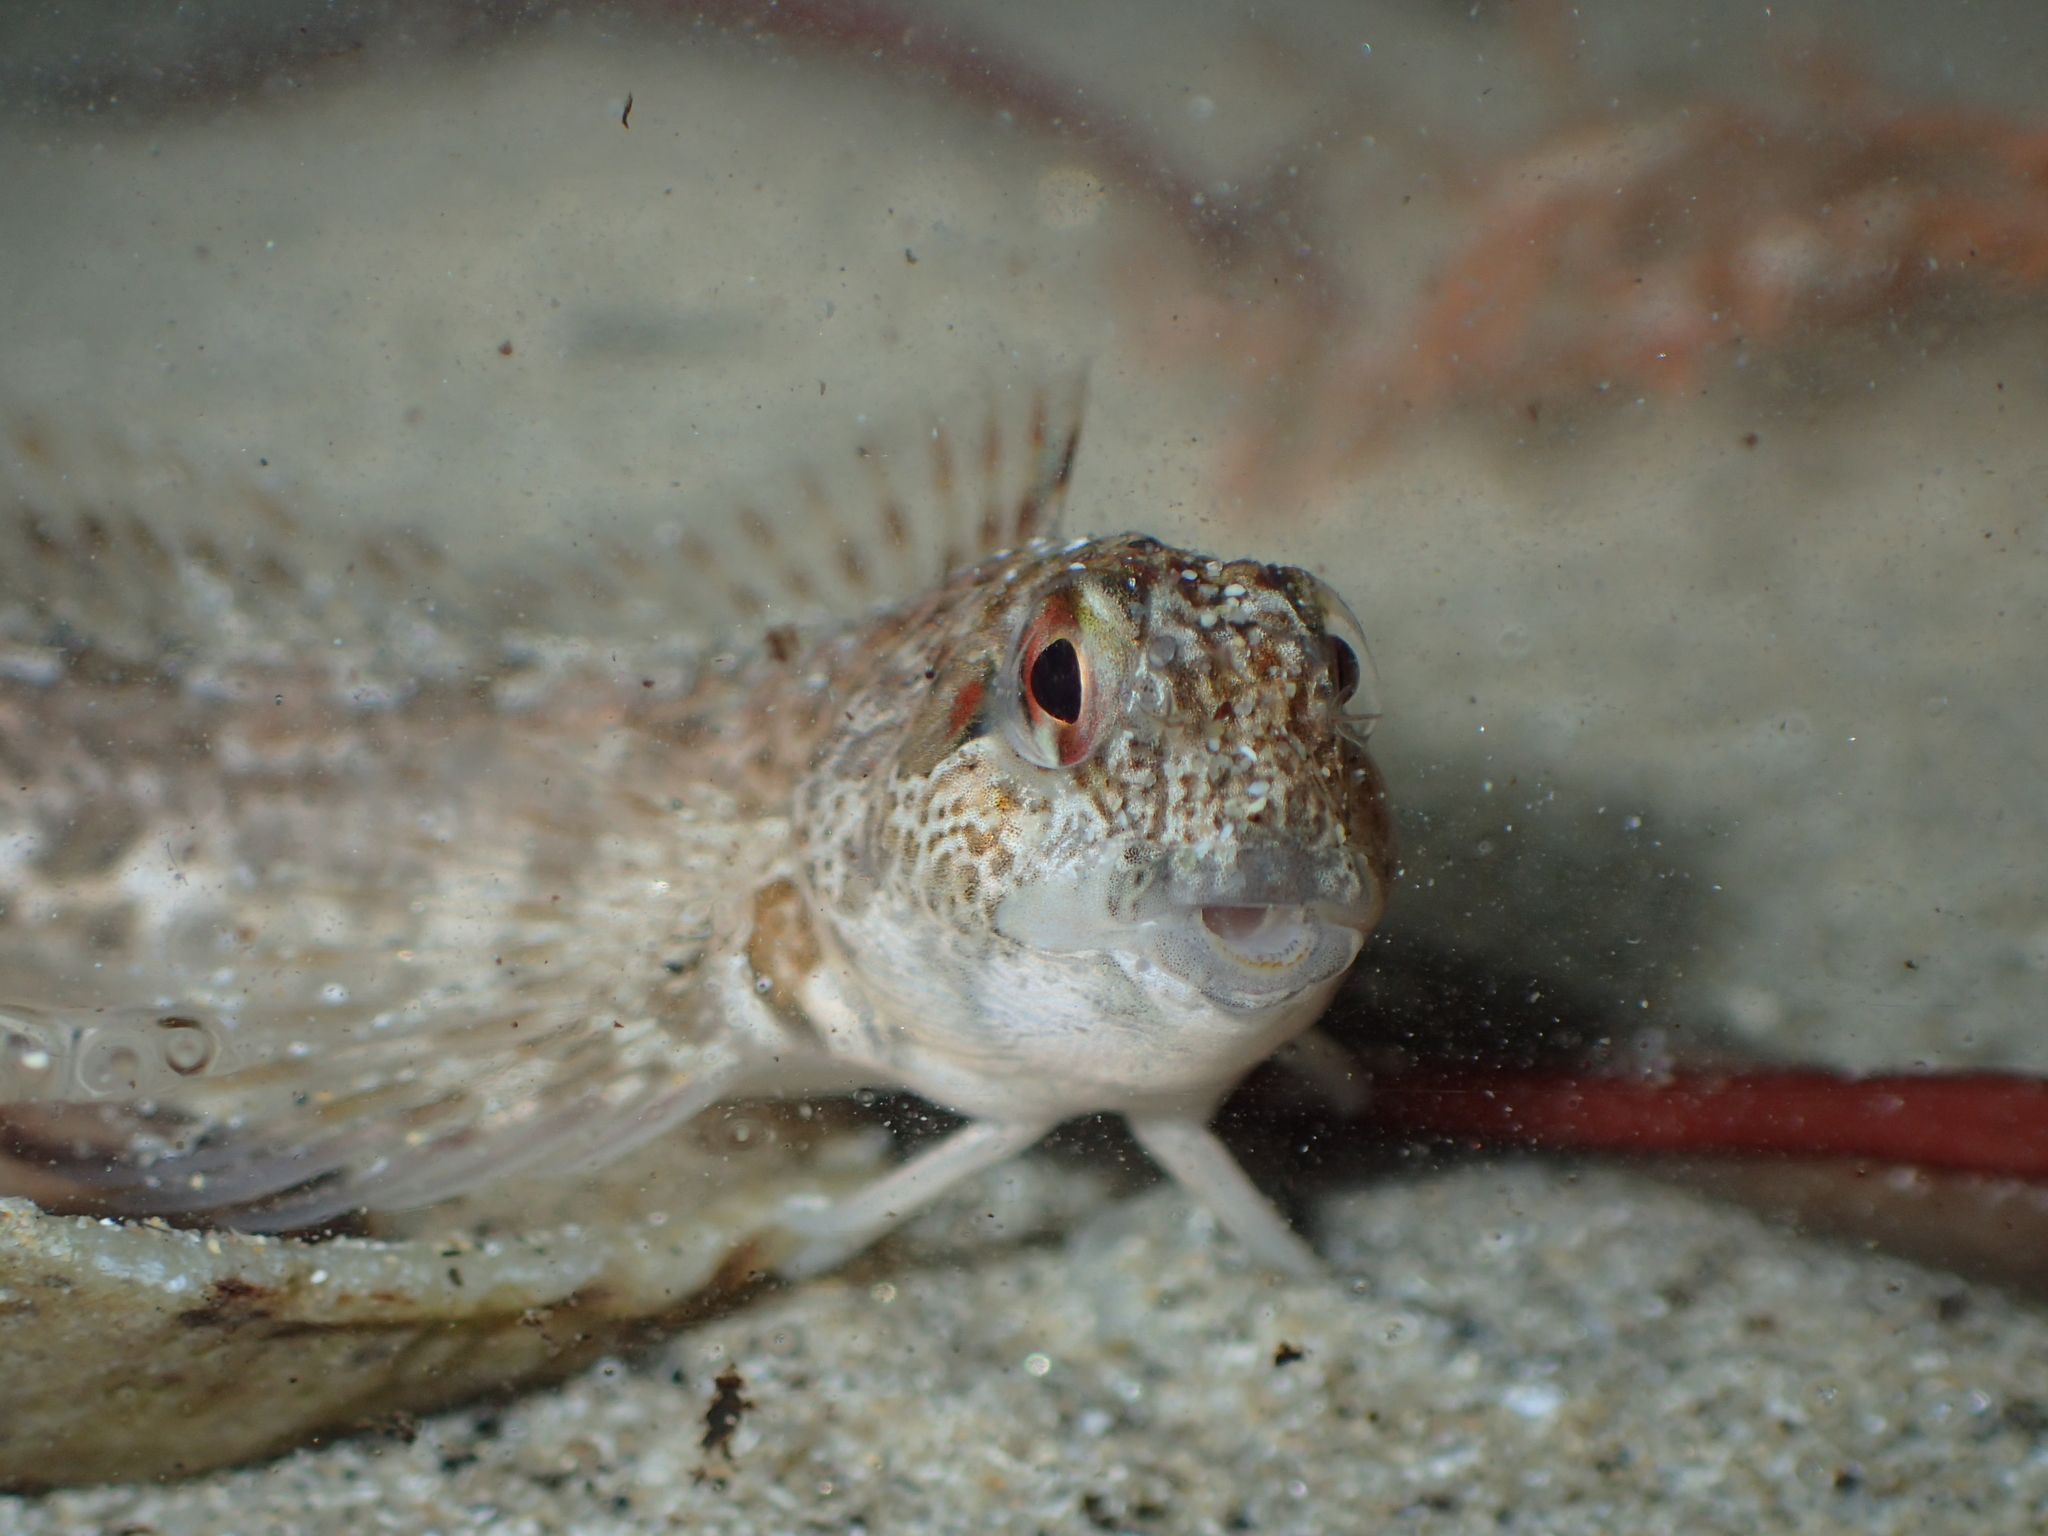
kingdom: Animalia
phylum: Chordata
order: Perciformes
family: Blenniidae
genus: Lipophrys
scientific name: Lipophrys pholis
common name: Shanny
